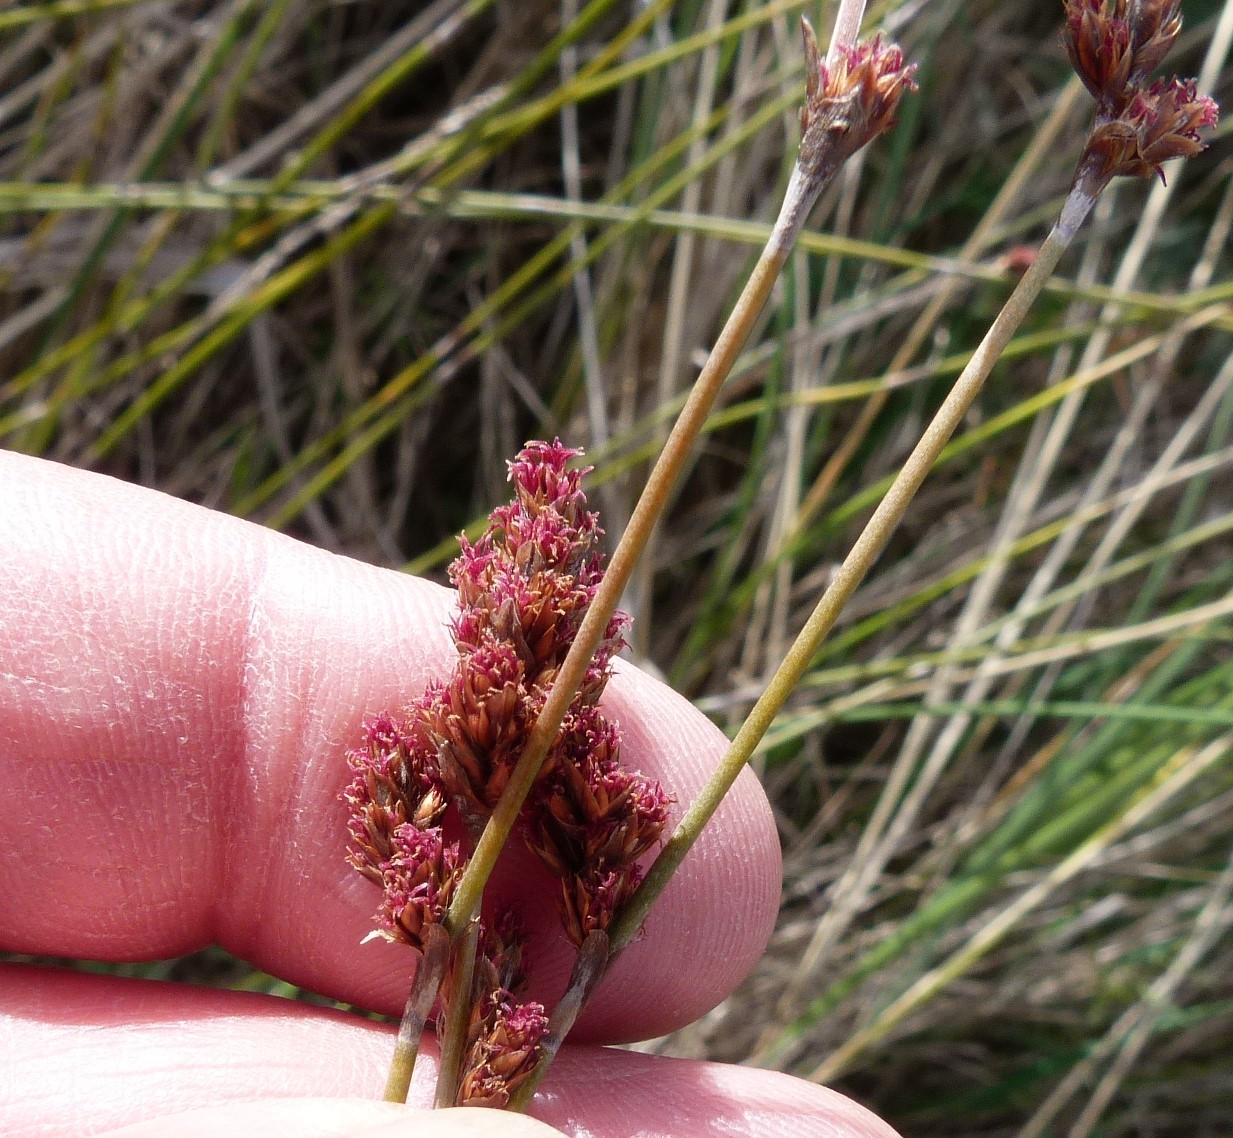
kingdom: Plantae
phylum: Tracheophyta
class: Liliopsida
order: Poales
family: Restionaceae
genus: Apodasmia
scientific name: Apodasmia similis
